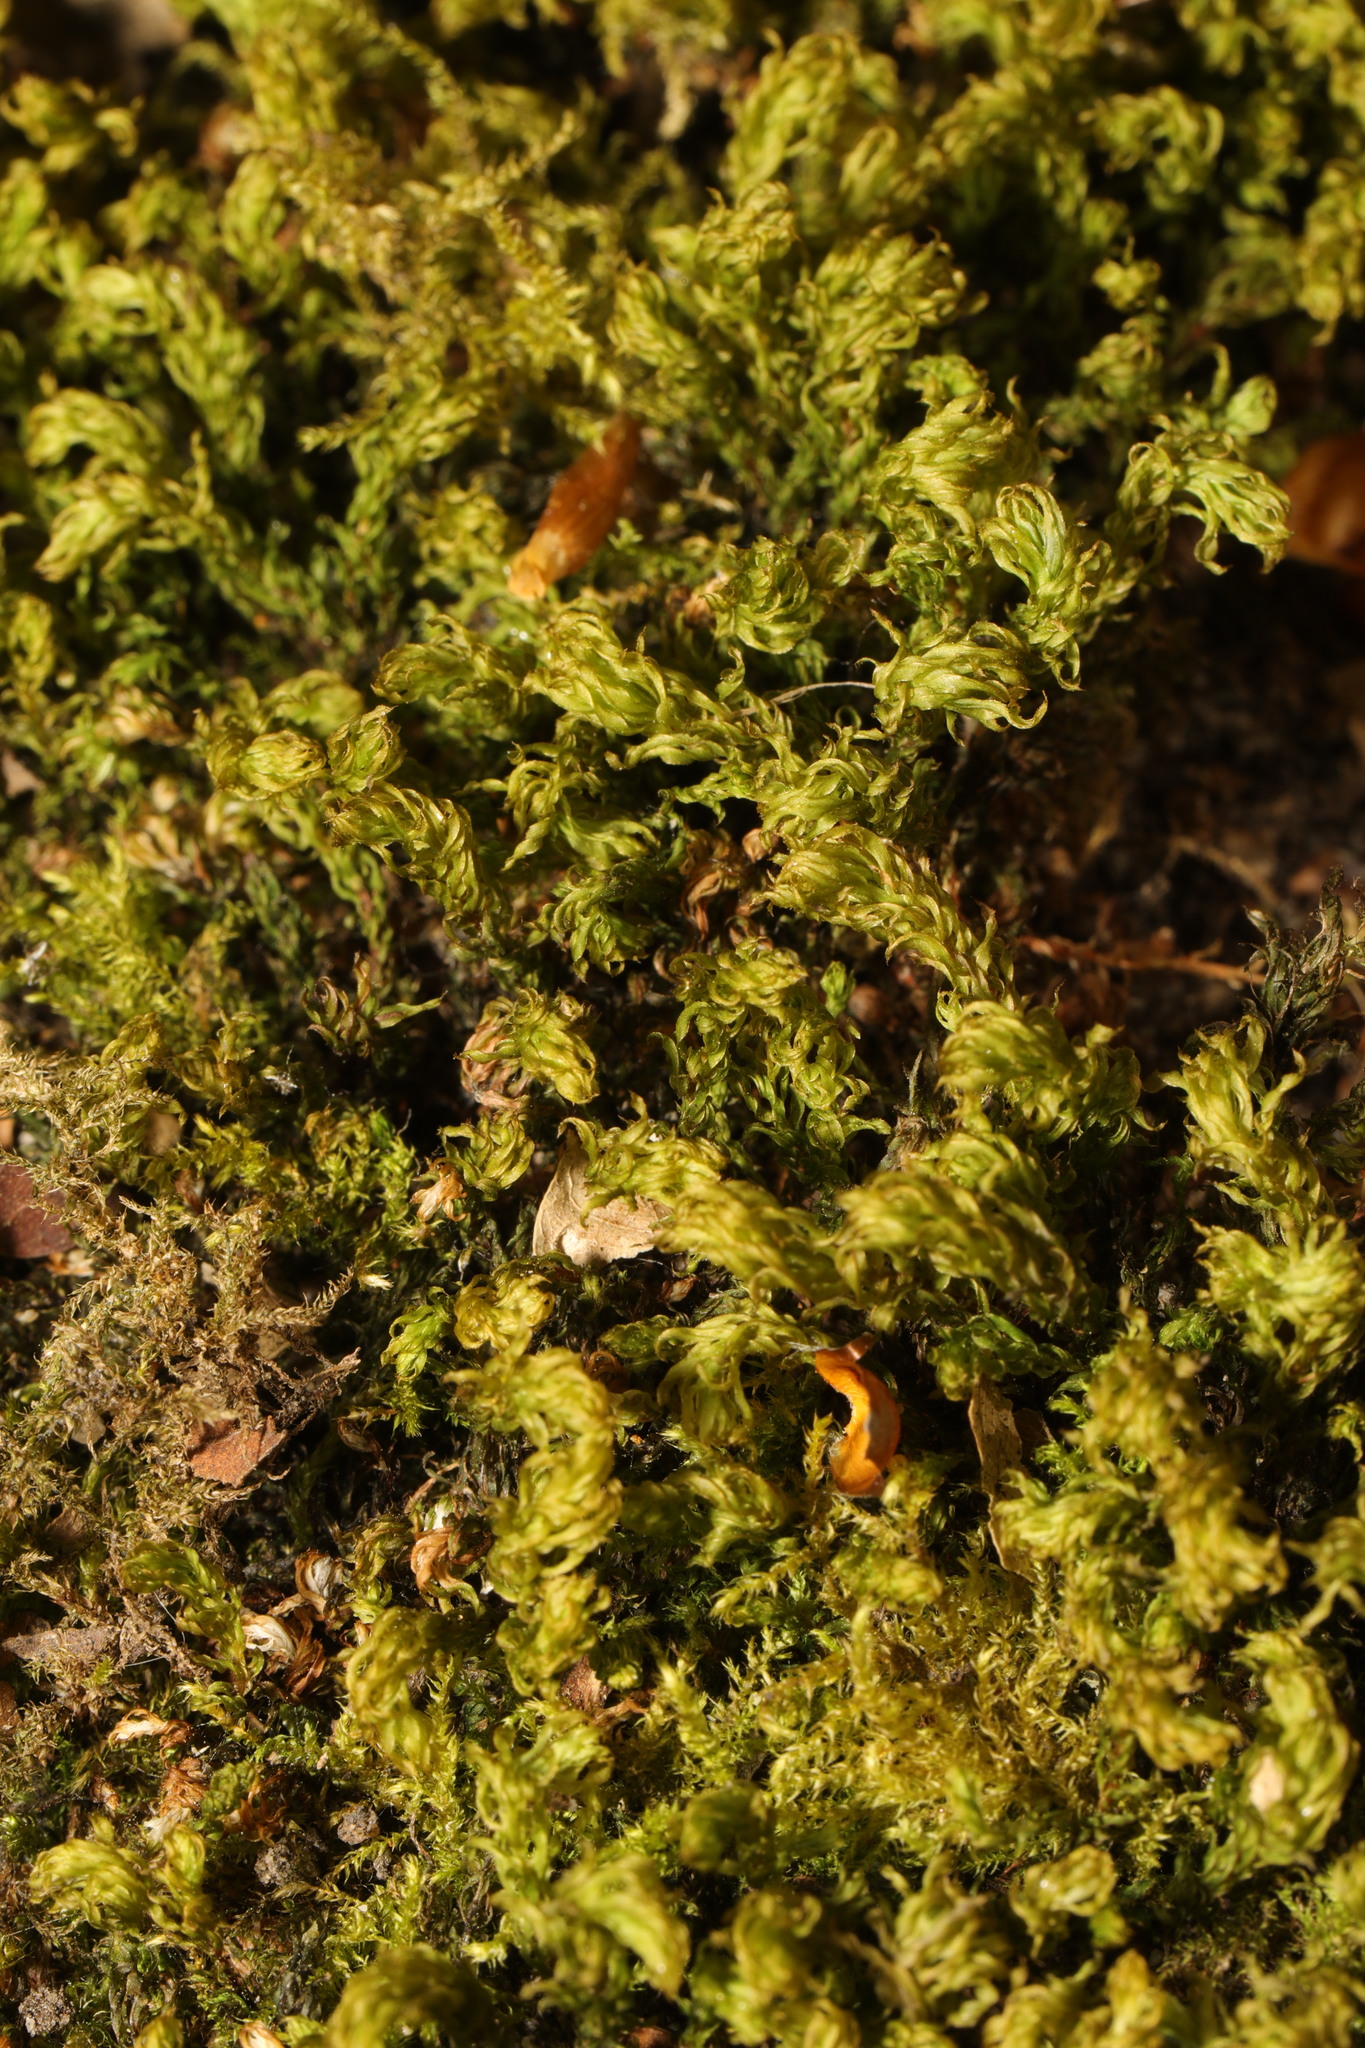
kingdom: Plantae
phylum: Bryophyta
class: Bryopsida
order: Bryales
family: Mniaceae
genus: Mnium
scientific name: Mnium hornum
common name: Swan's-neck leafy moss
